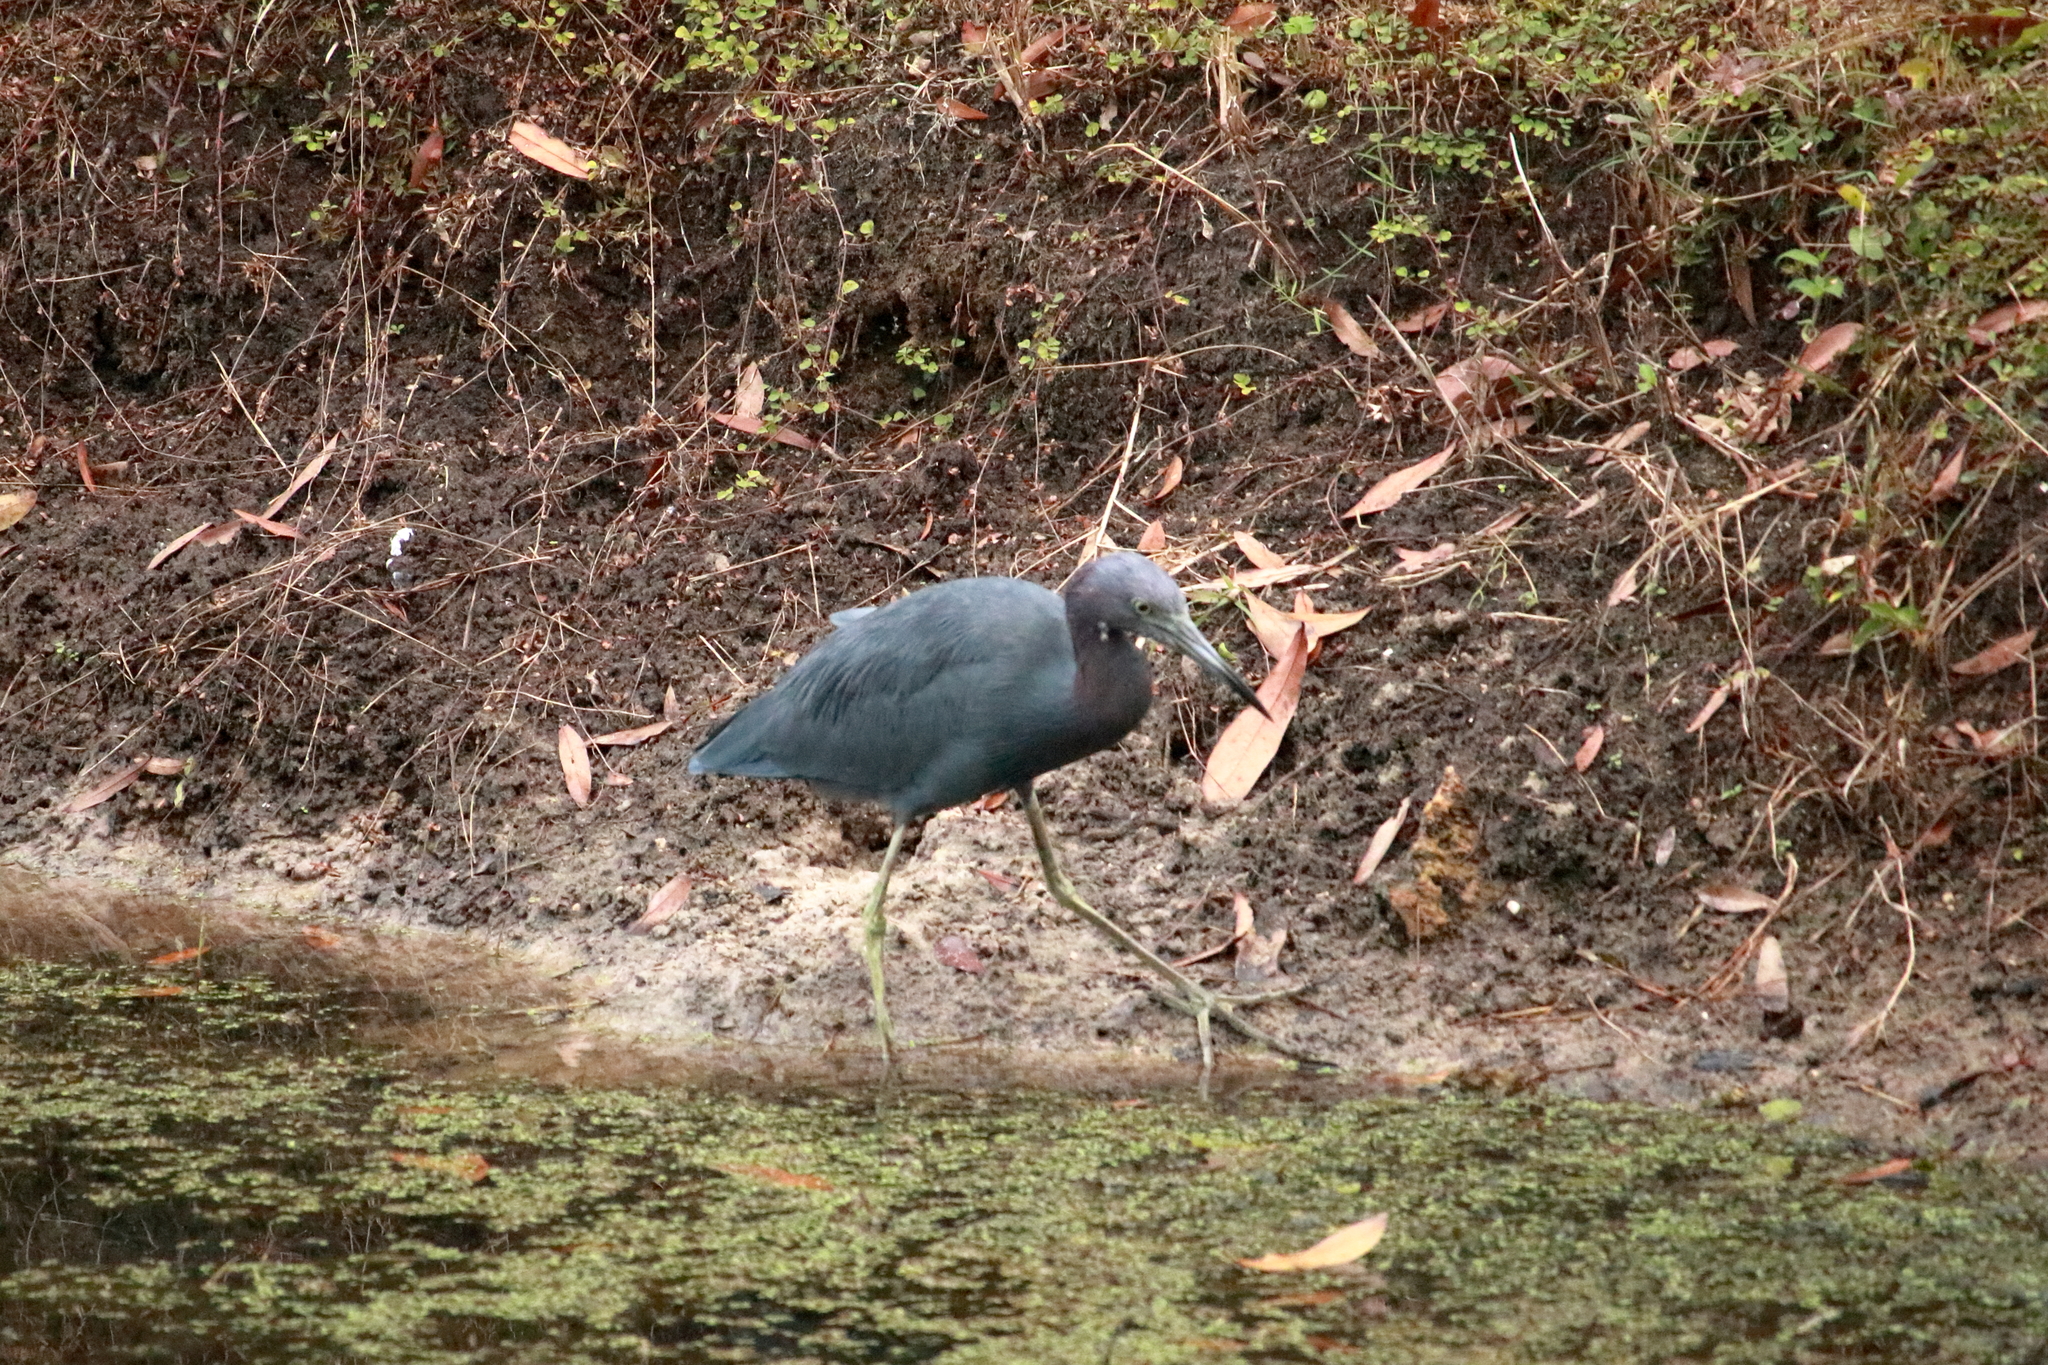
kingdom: Animalia
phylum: Chordata
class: Aves
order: Pelecaniformes
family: Ardeidae
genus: Egretta
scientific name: Egretta caerulea
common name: Little blue heron
